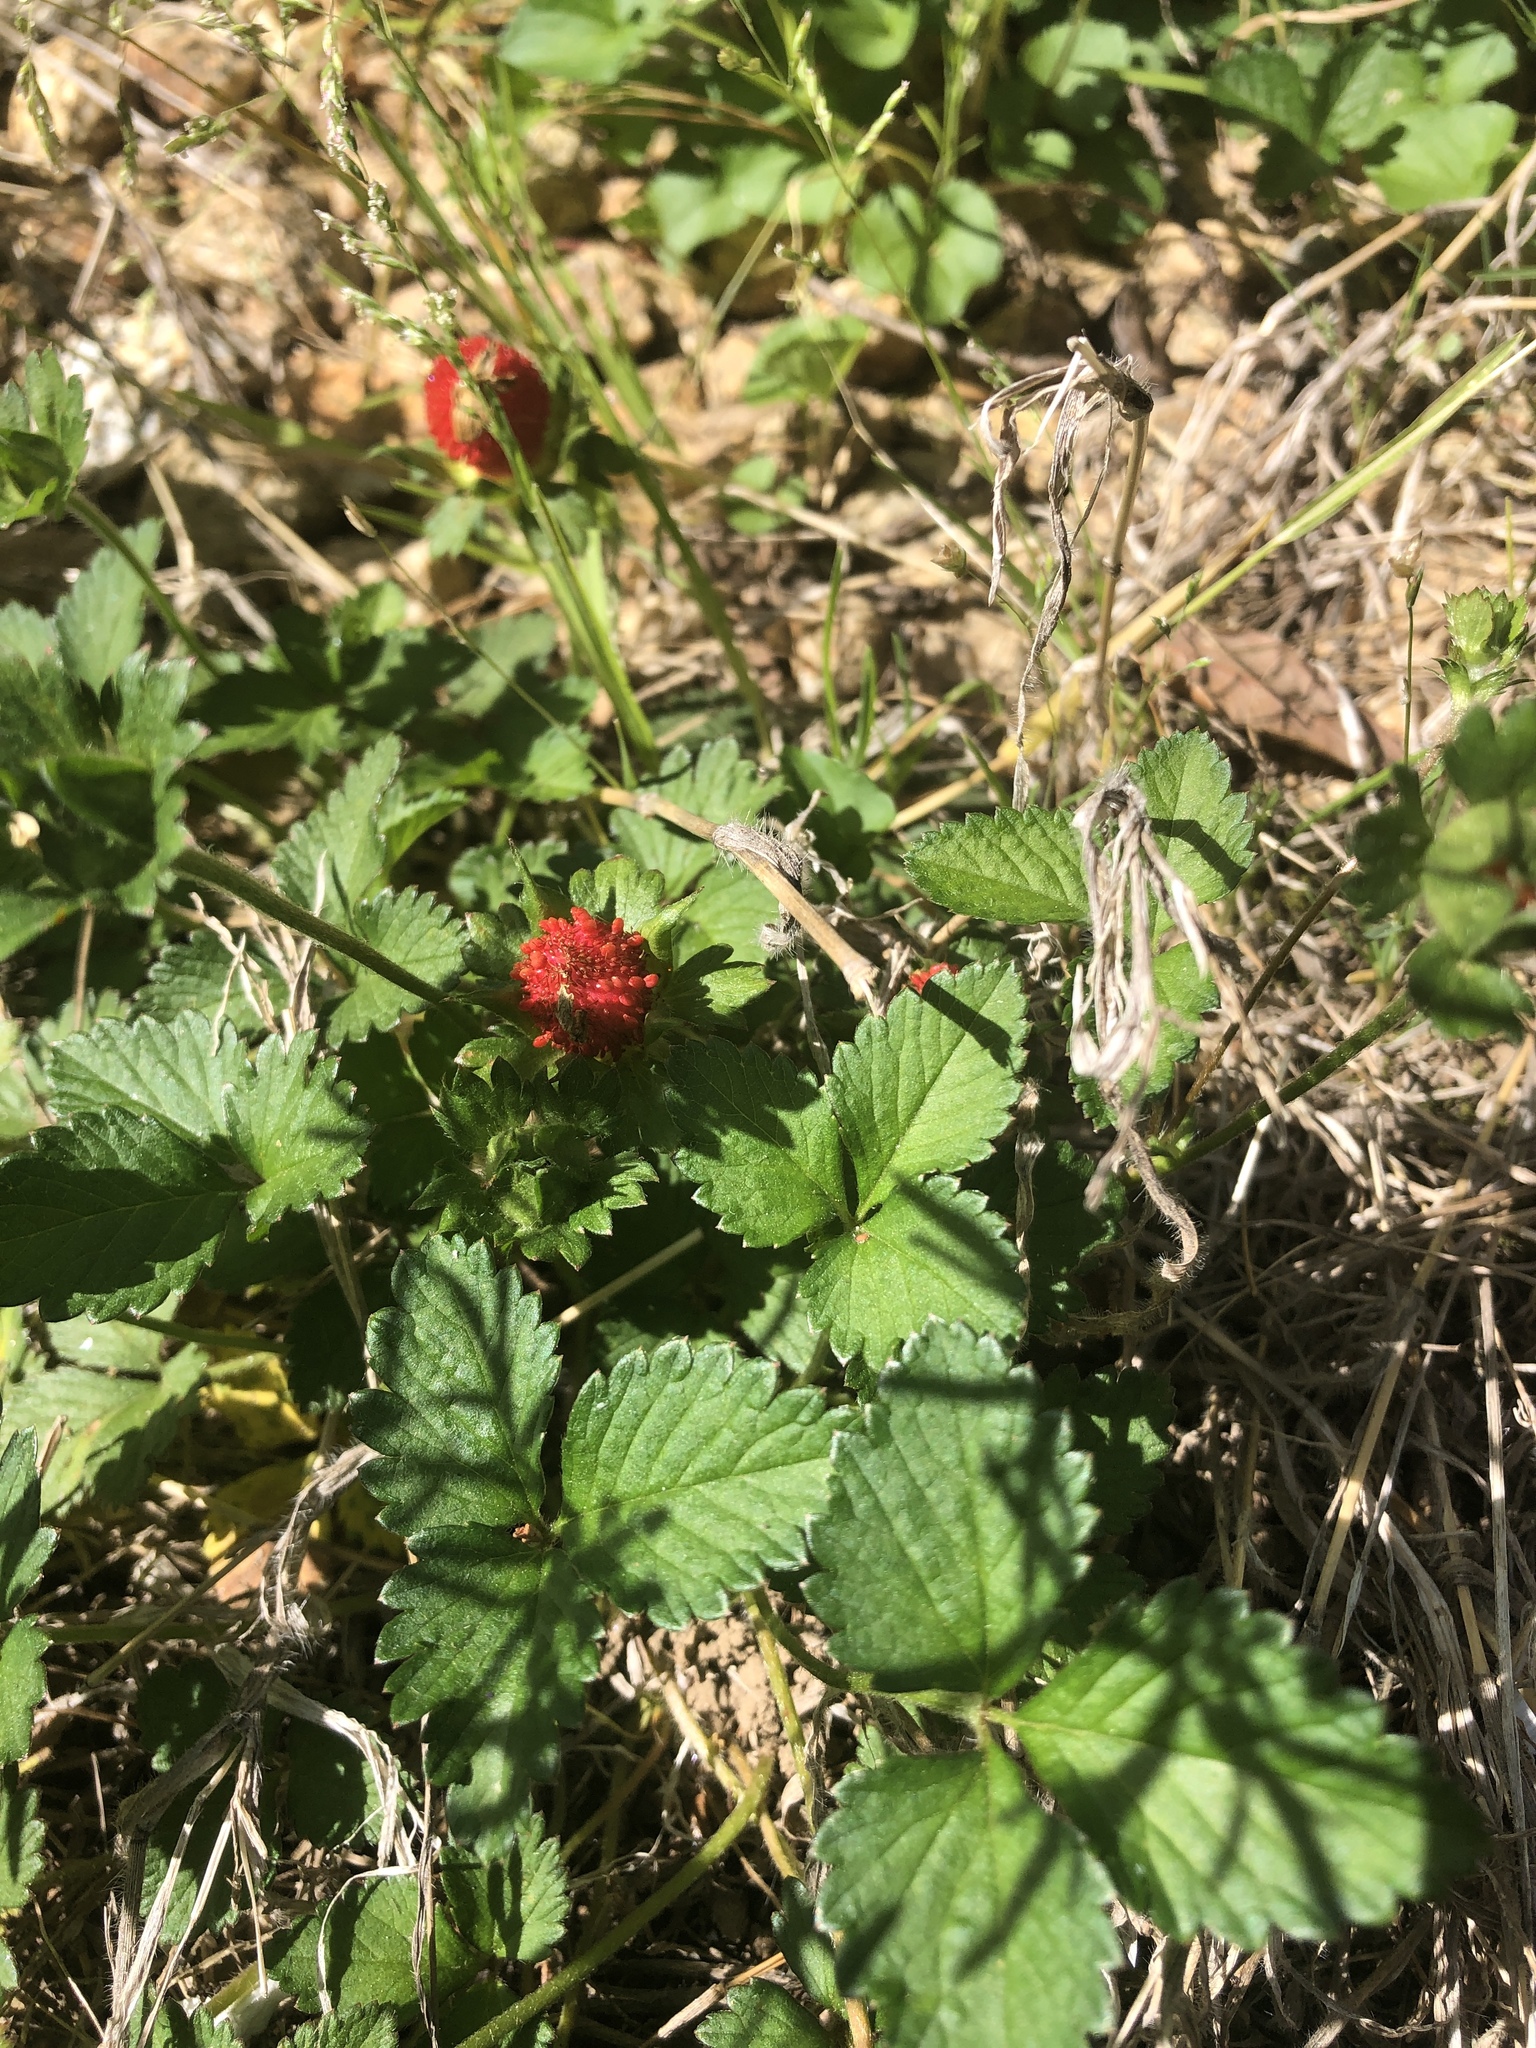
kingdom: Plantae
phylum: Tracheophyta
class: Magnoliopsida
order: Rosales
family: Rosaceae
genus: Potentilla
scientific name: Potentilla indica
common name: Yellow-flowered strawberry
